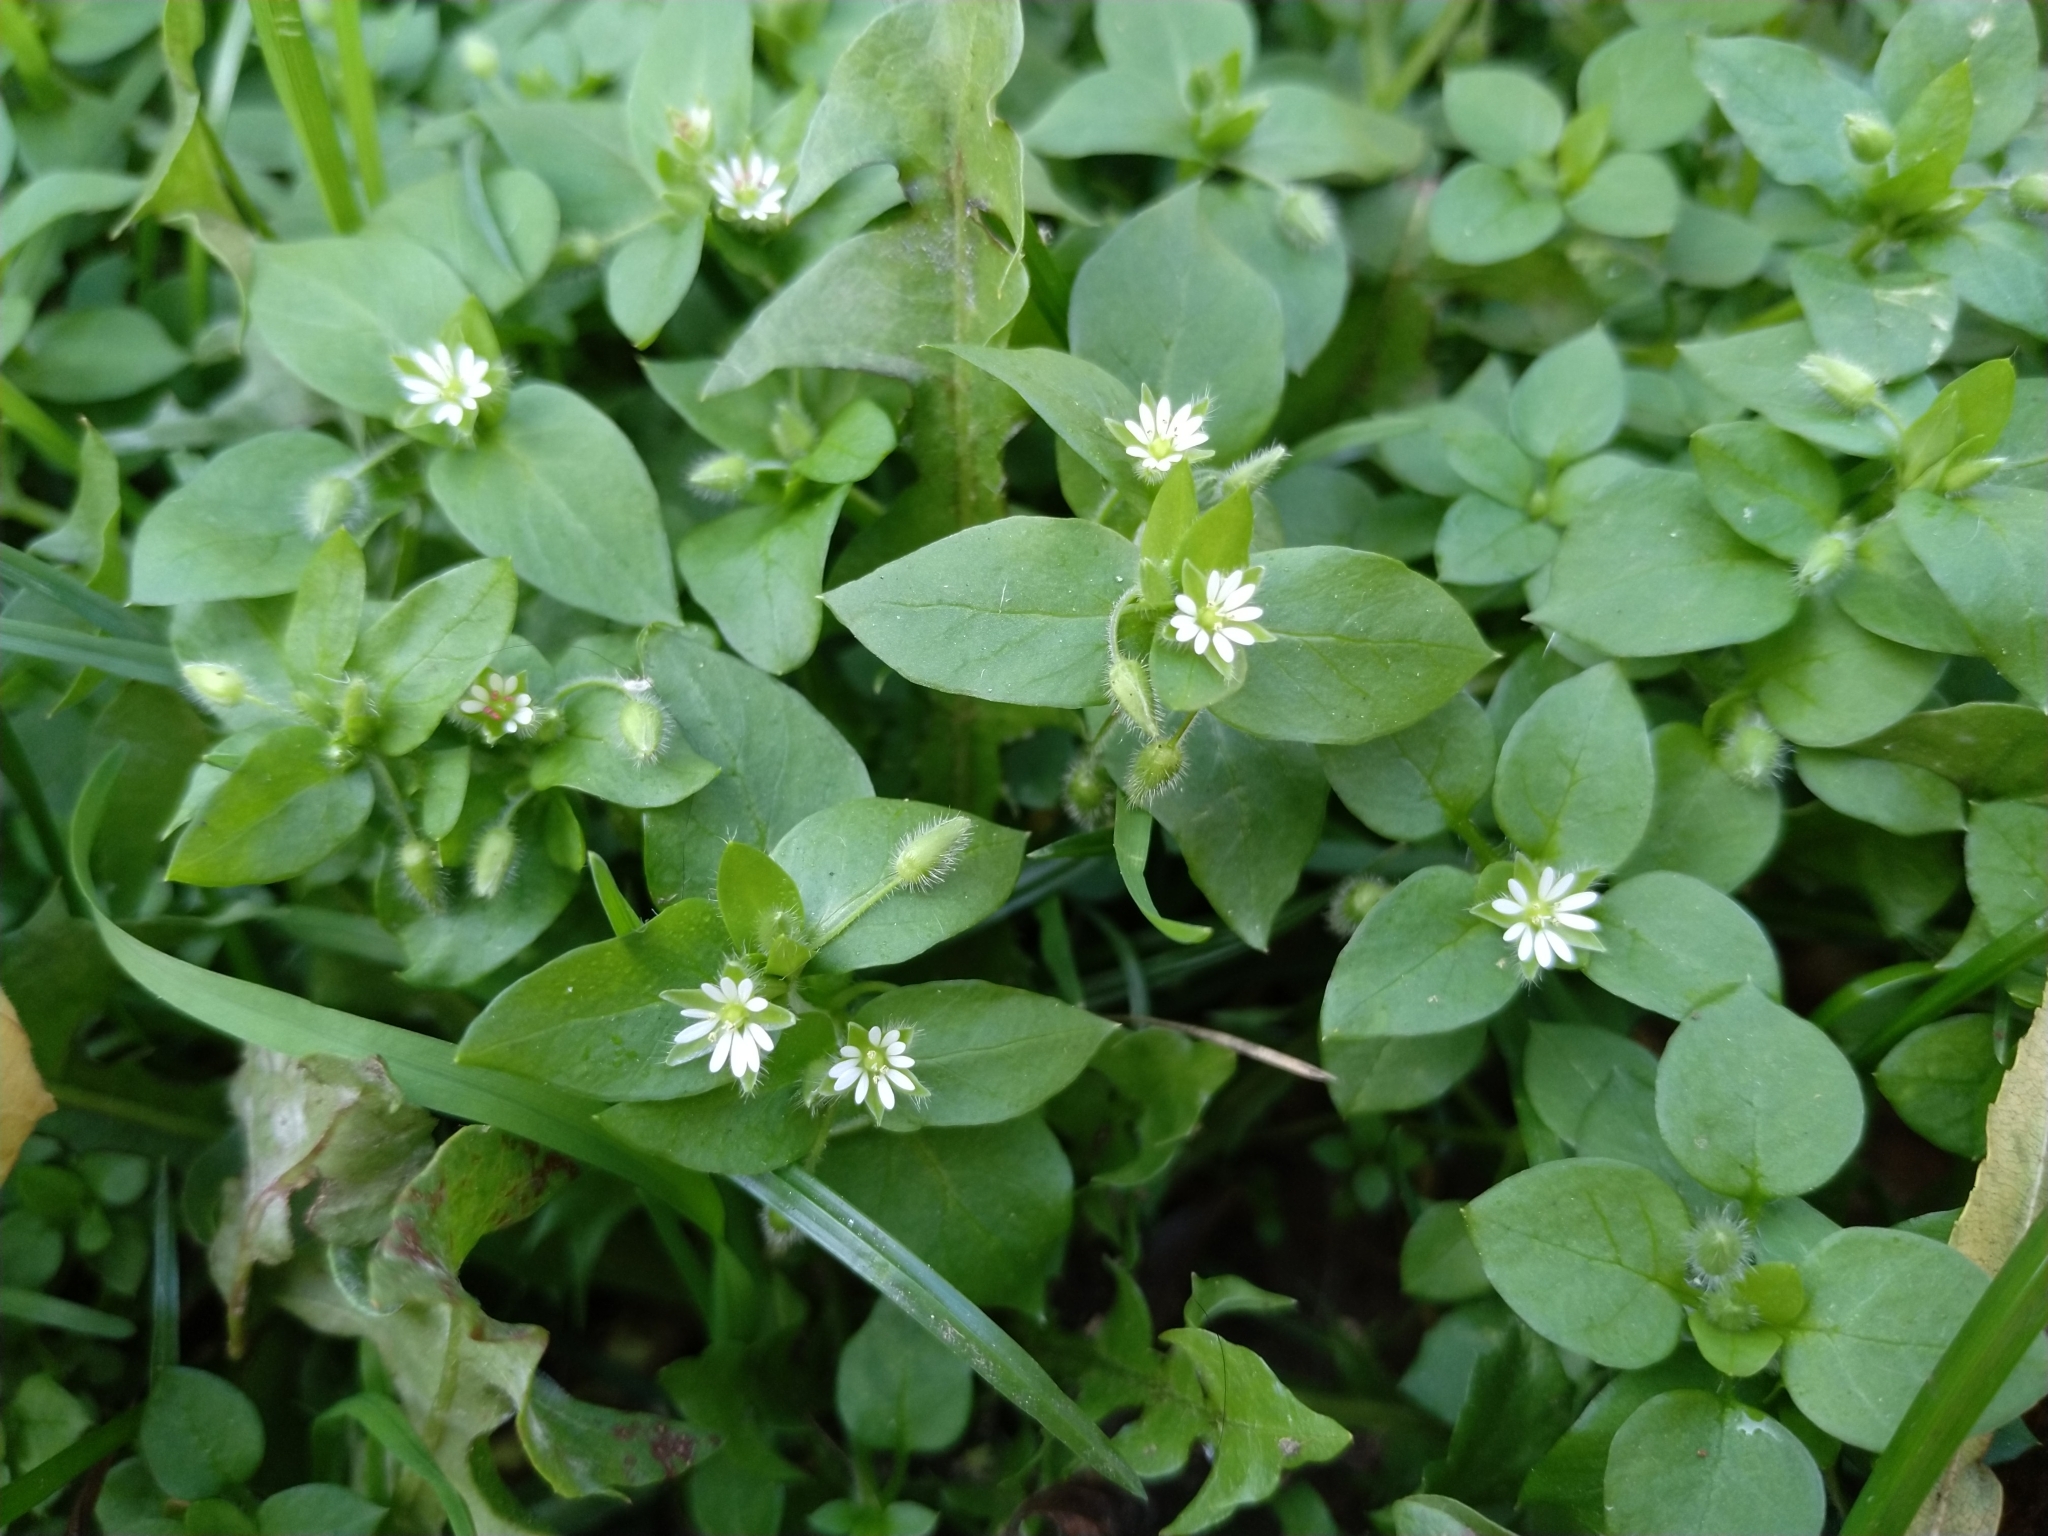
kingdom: Plantae
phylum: Tracheophyta
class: Magnoliopsida
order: Caryophyllales
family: Caryophyllaceae
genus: Stellaria
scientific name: Stellaria media
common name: Common chickweed
